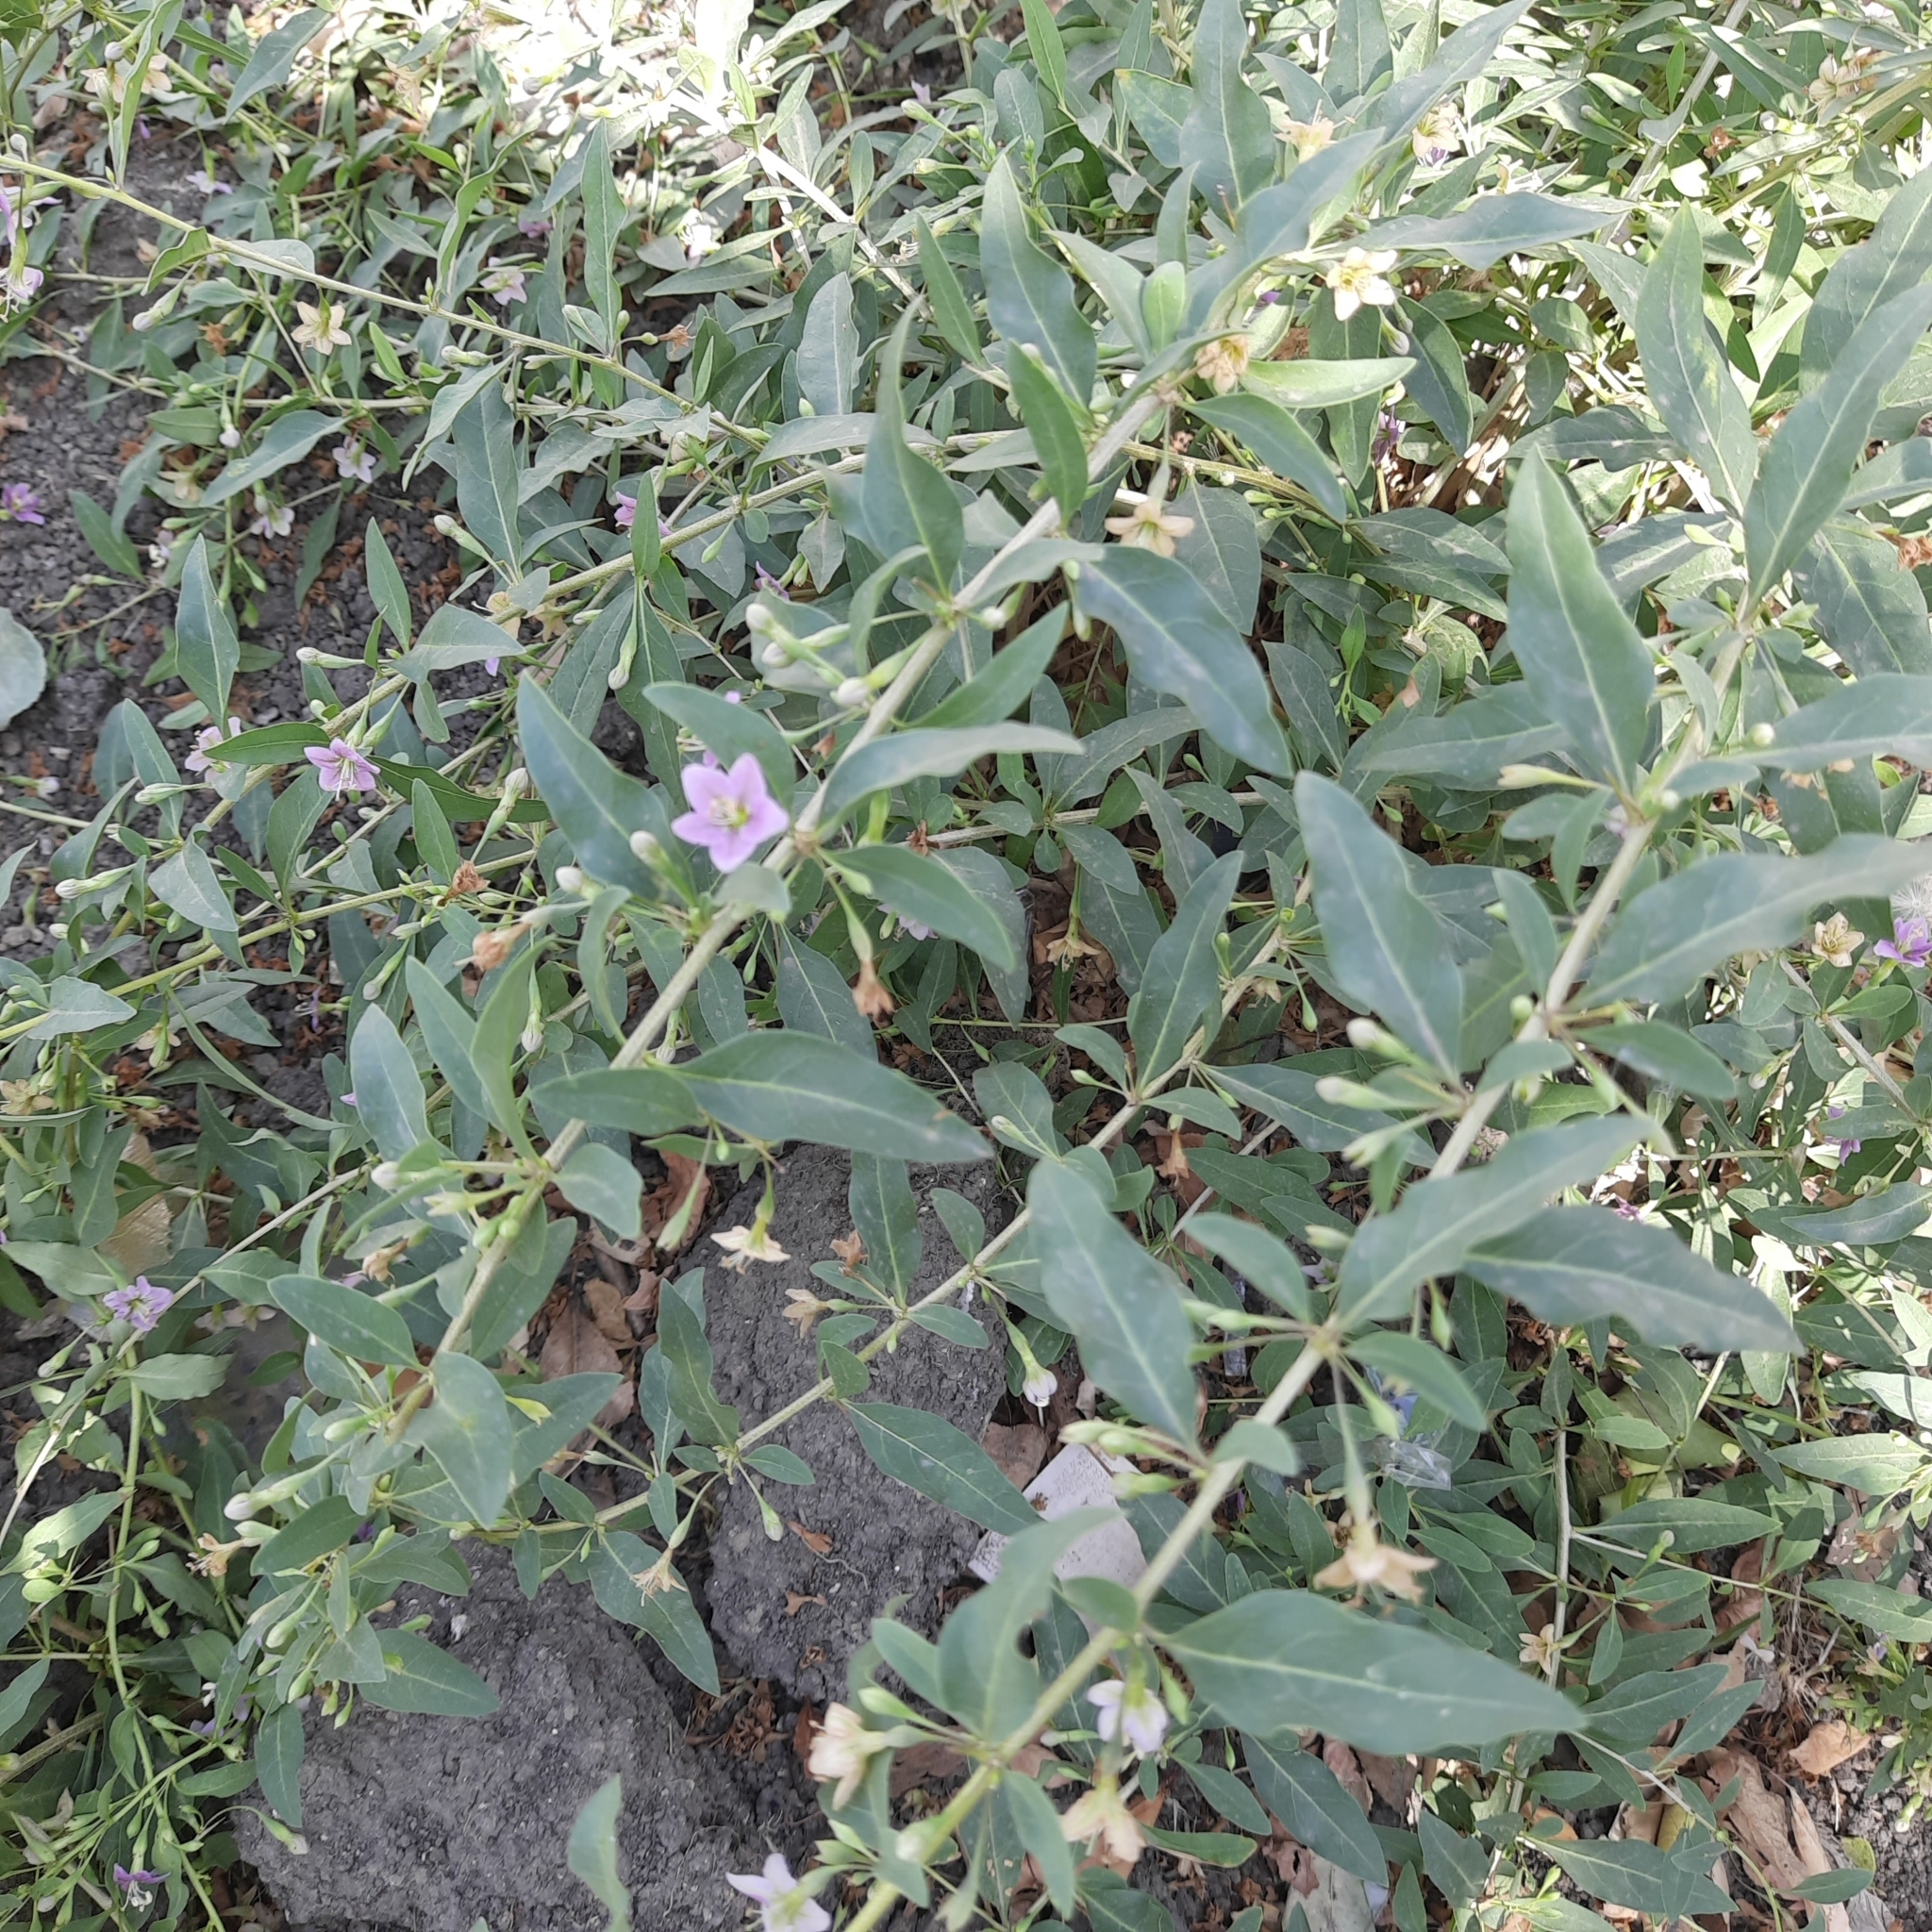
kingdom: Plantae
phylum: Tracheophyta
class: Magnoliopsida
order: Solanales
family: Solanaceae
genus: Lycium
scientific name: Lycium barbarum
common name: Duke of argyll's teaplant
